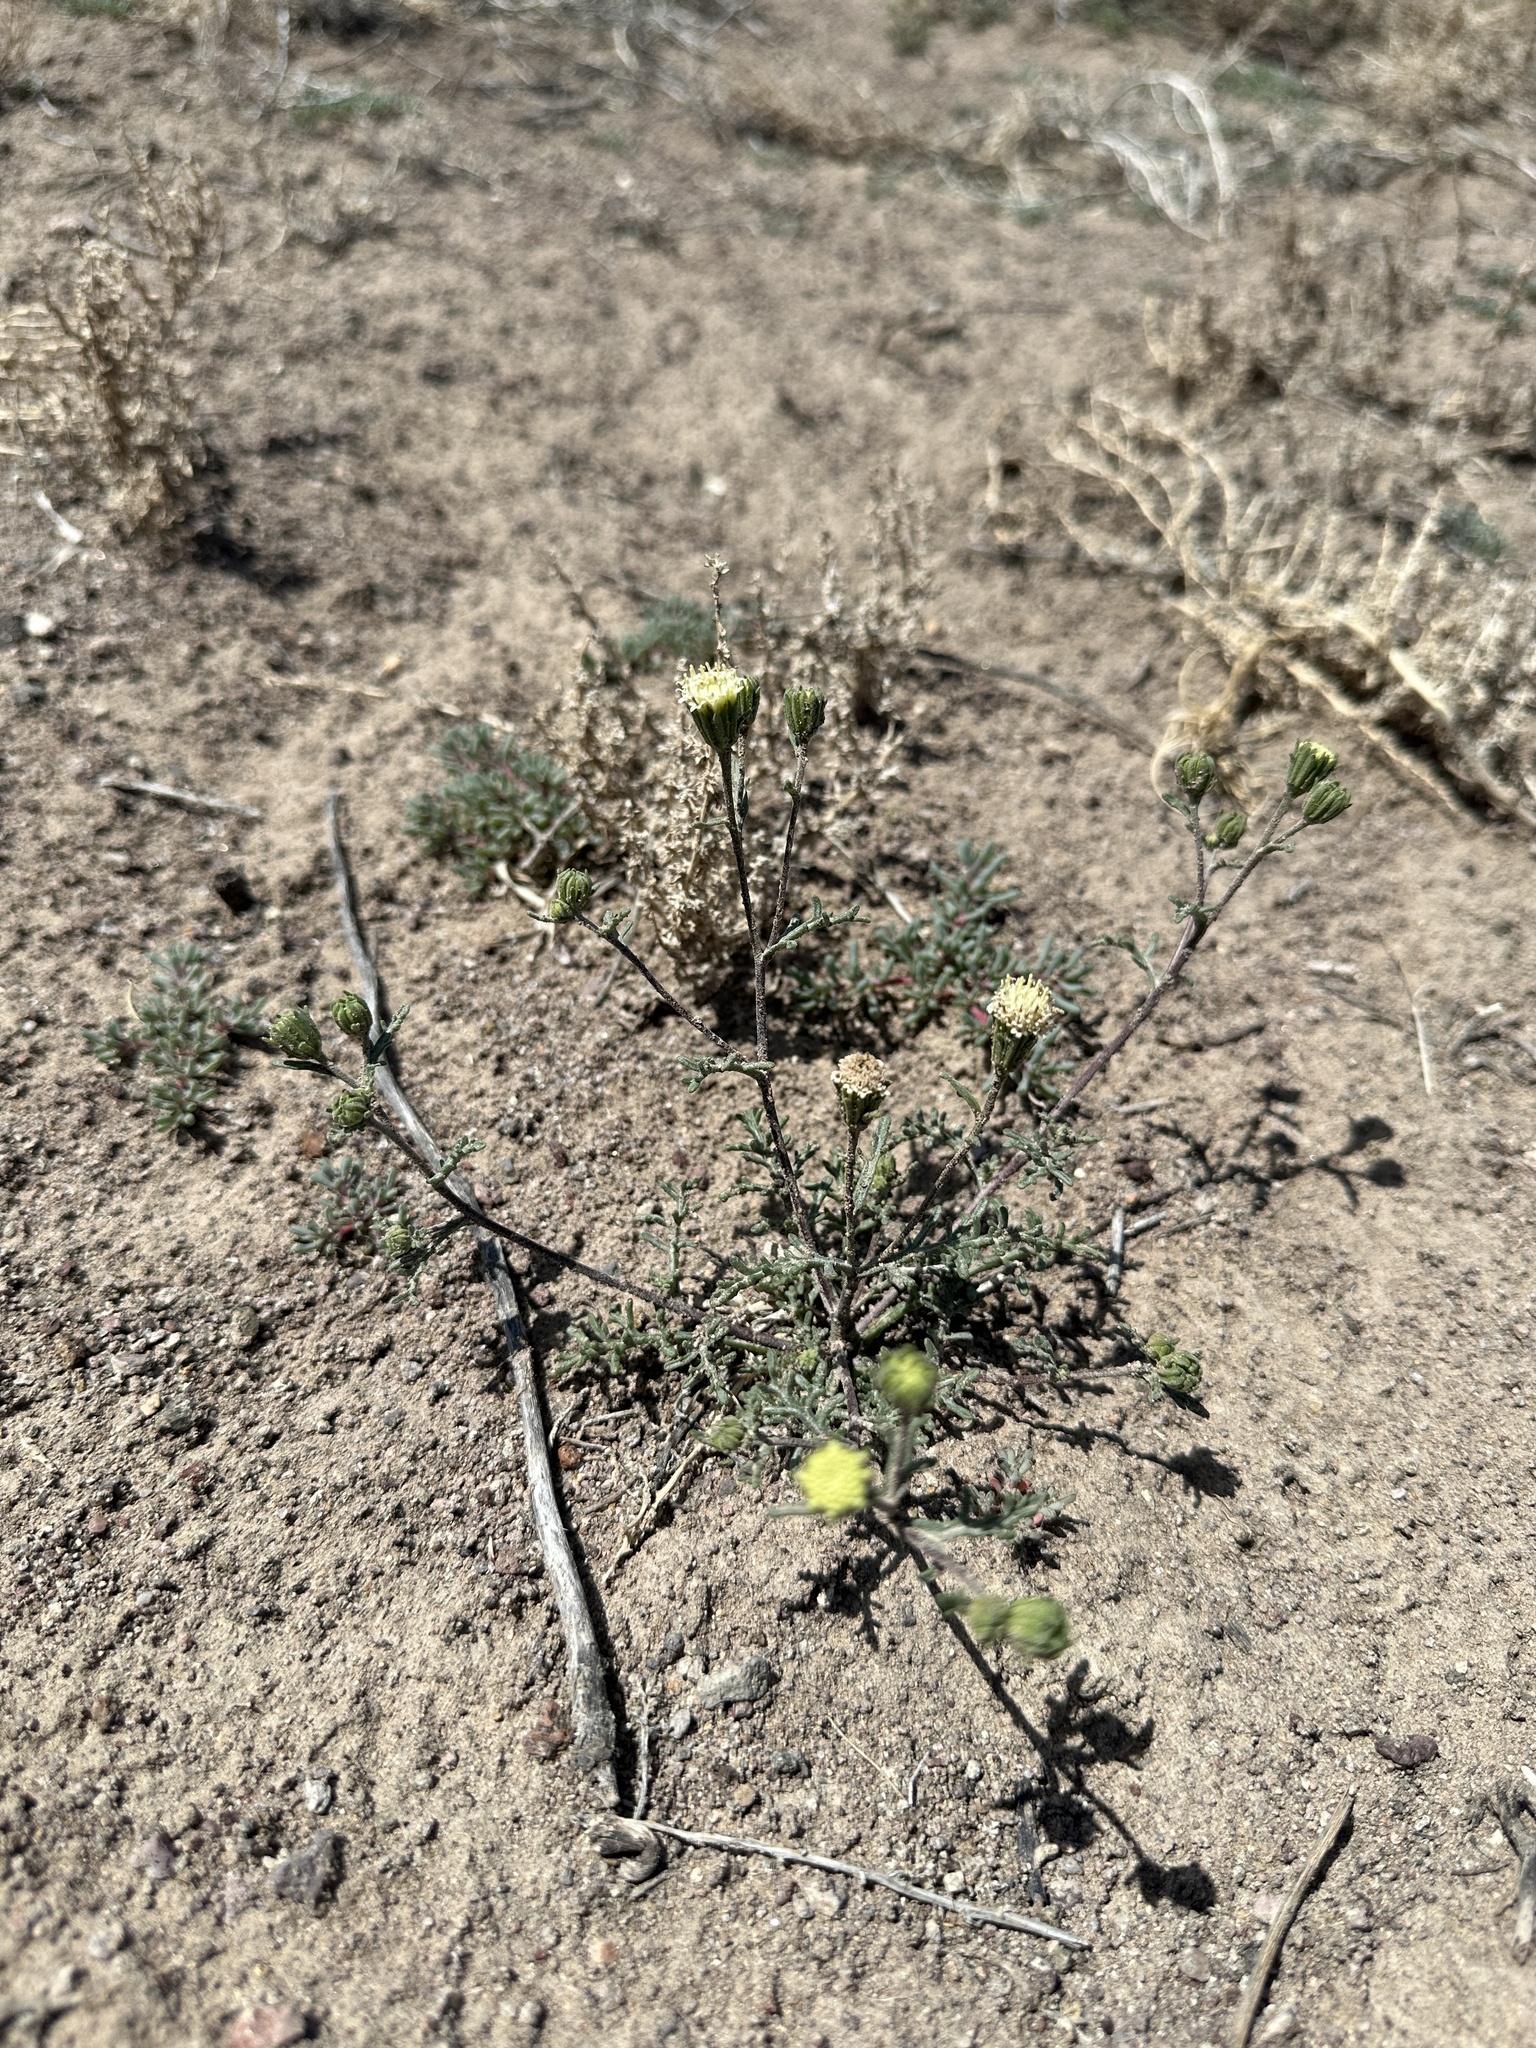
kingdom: Plantae
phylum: Tracheophyta
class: Magnoliopsida
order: Asterales
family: Asteraceae
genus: Chaenactis
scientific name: Chaenactis stevioides
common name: Desert pincushion
